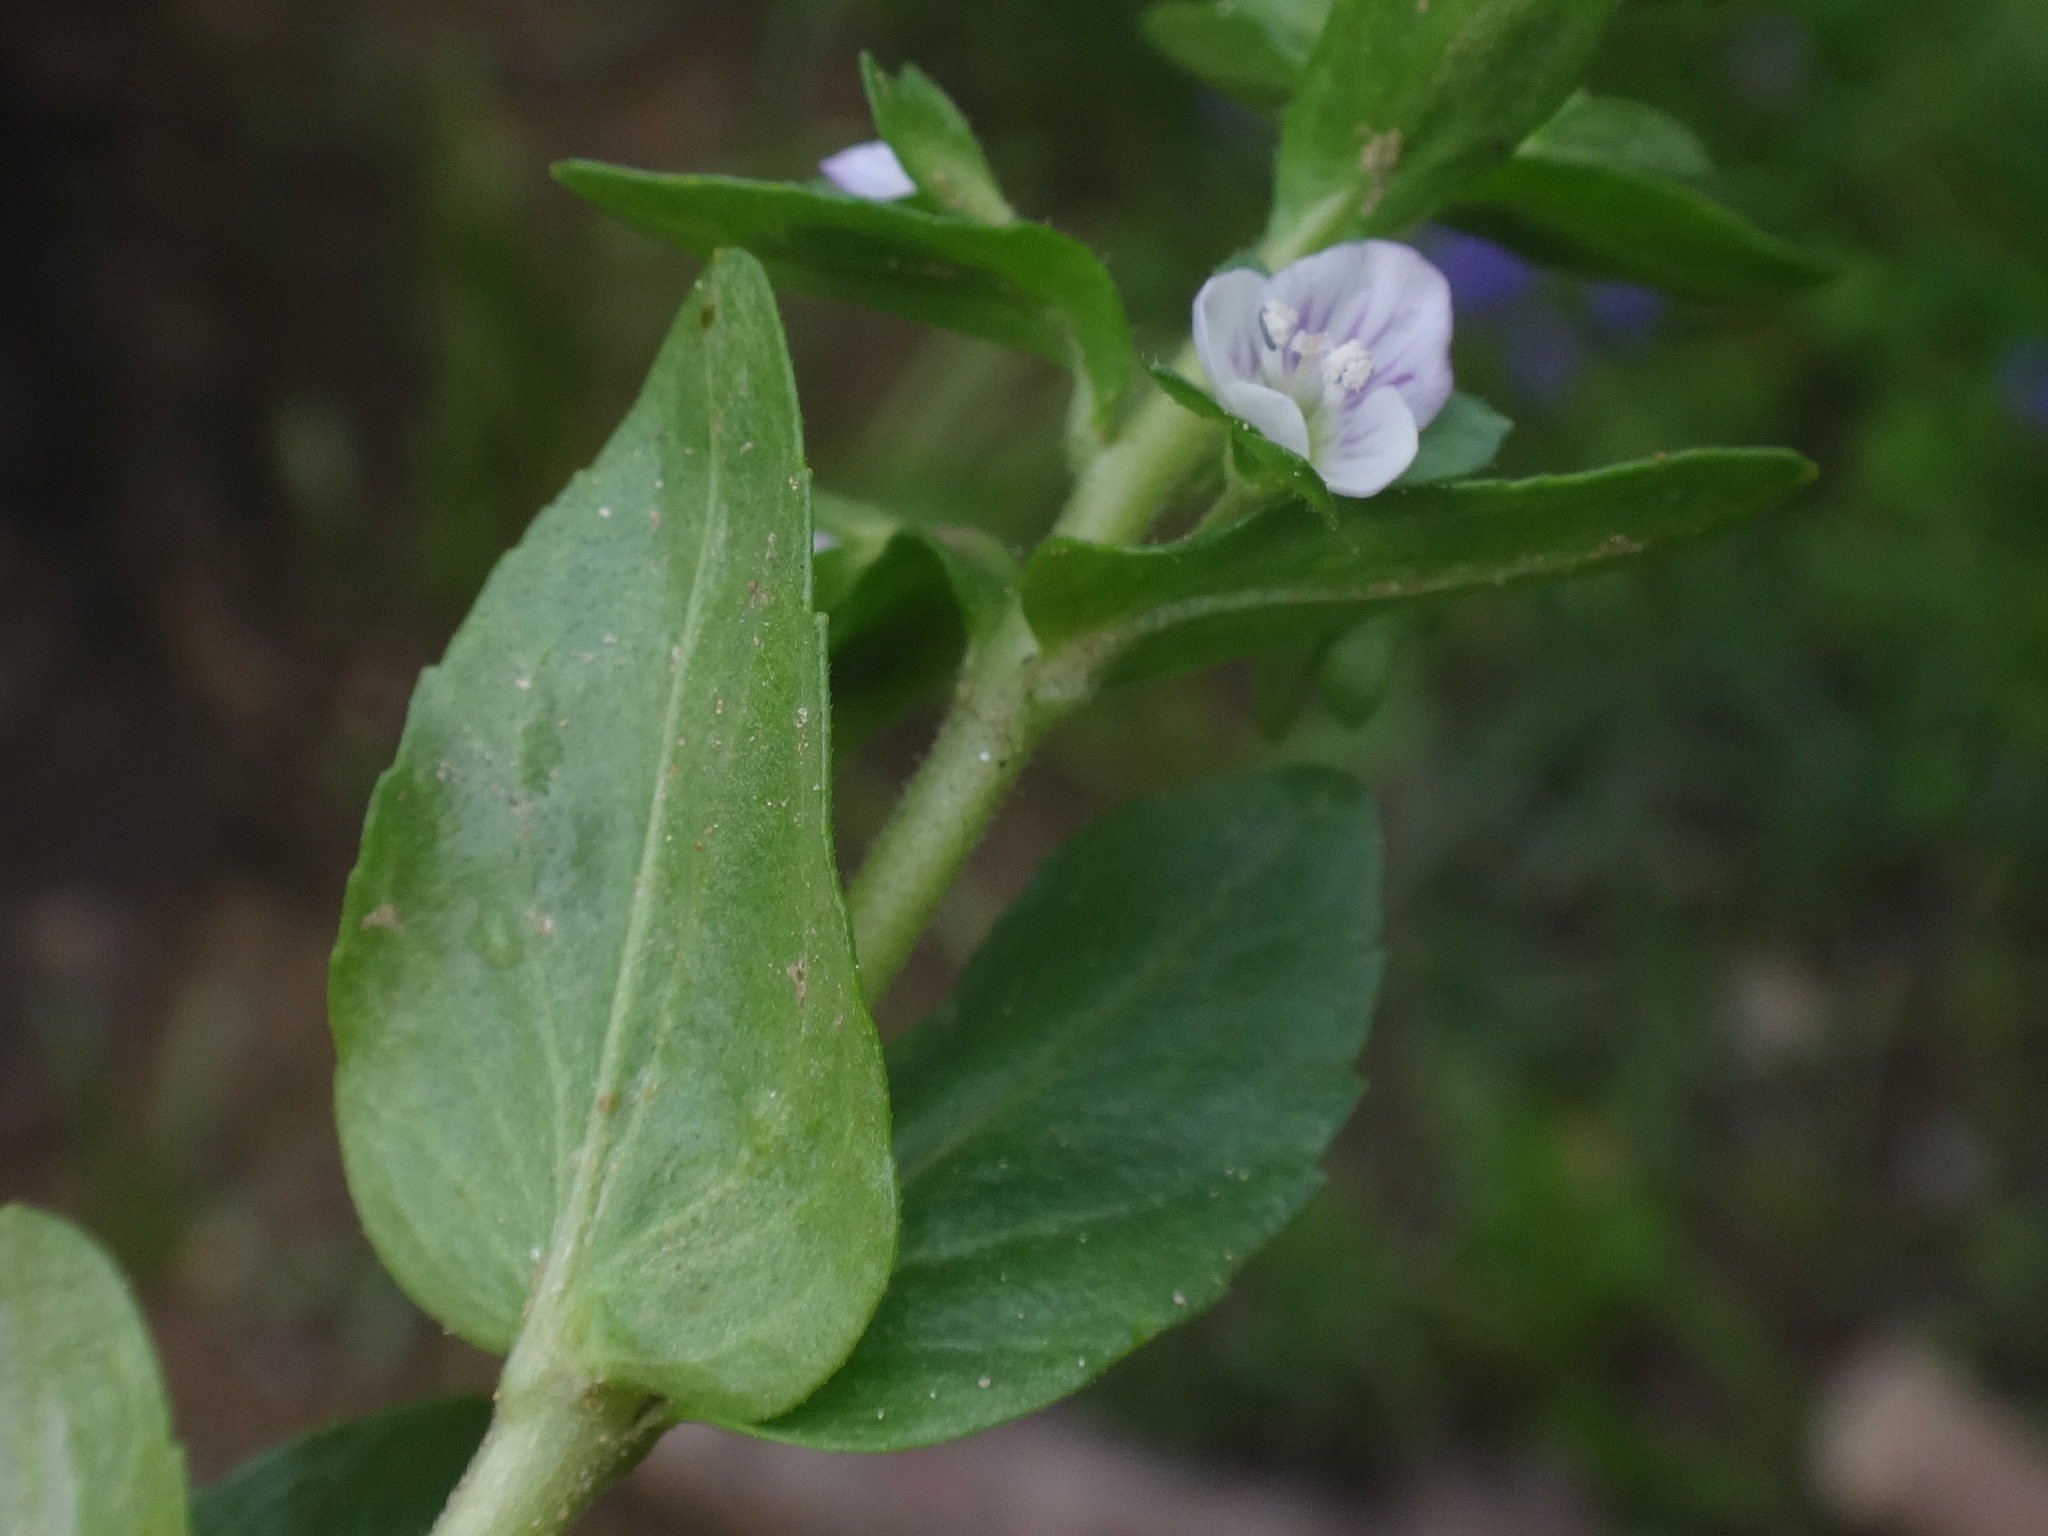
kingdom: Plantae
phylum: Tracheophyta
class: Magnoliopsida
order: Lamiales
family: Plantaginaceae
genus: Veronica
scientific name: Veronica serpyllifolia
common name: Thyme-leaved speedwell
